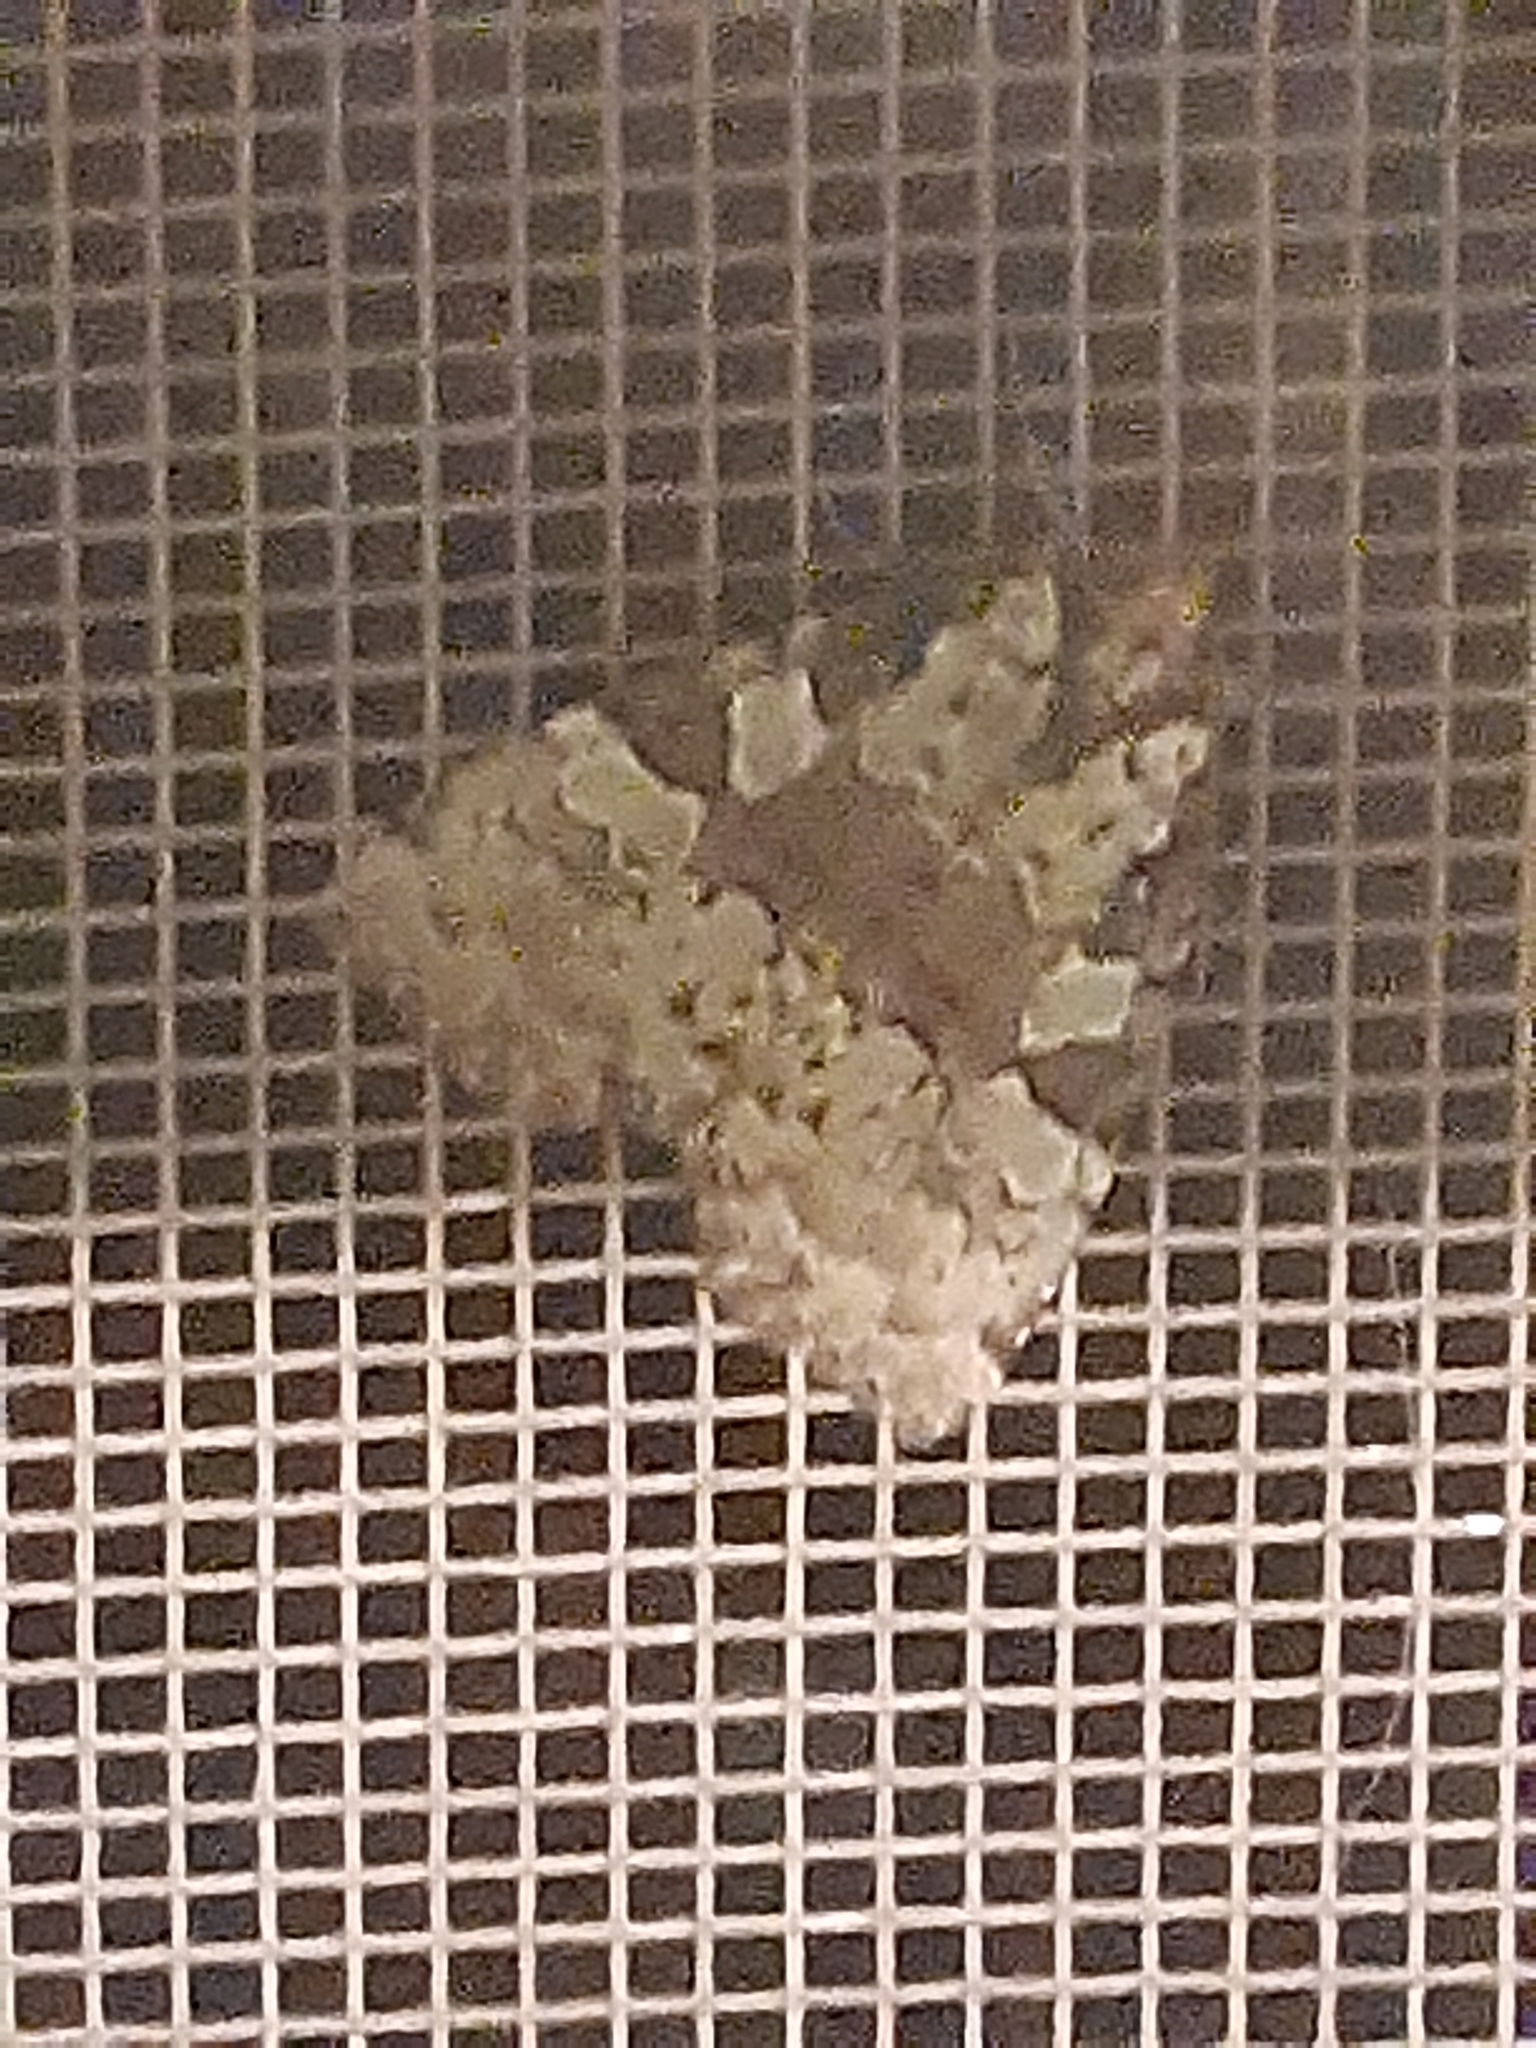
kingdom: Animalia
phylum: Arthropoda
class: Insecta
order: Lepidoptera
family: Noctuidae
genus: Leuconycta
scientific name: Leuconycta lepidula
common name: Marbled-green leuconycta moth
